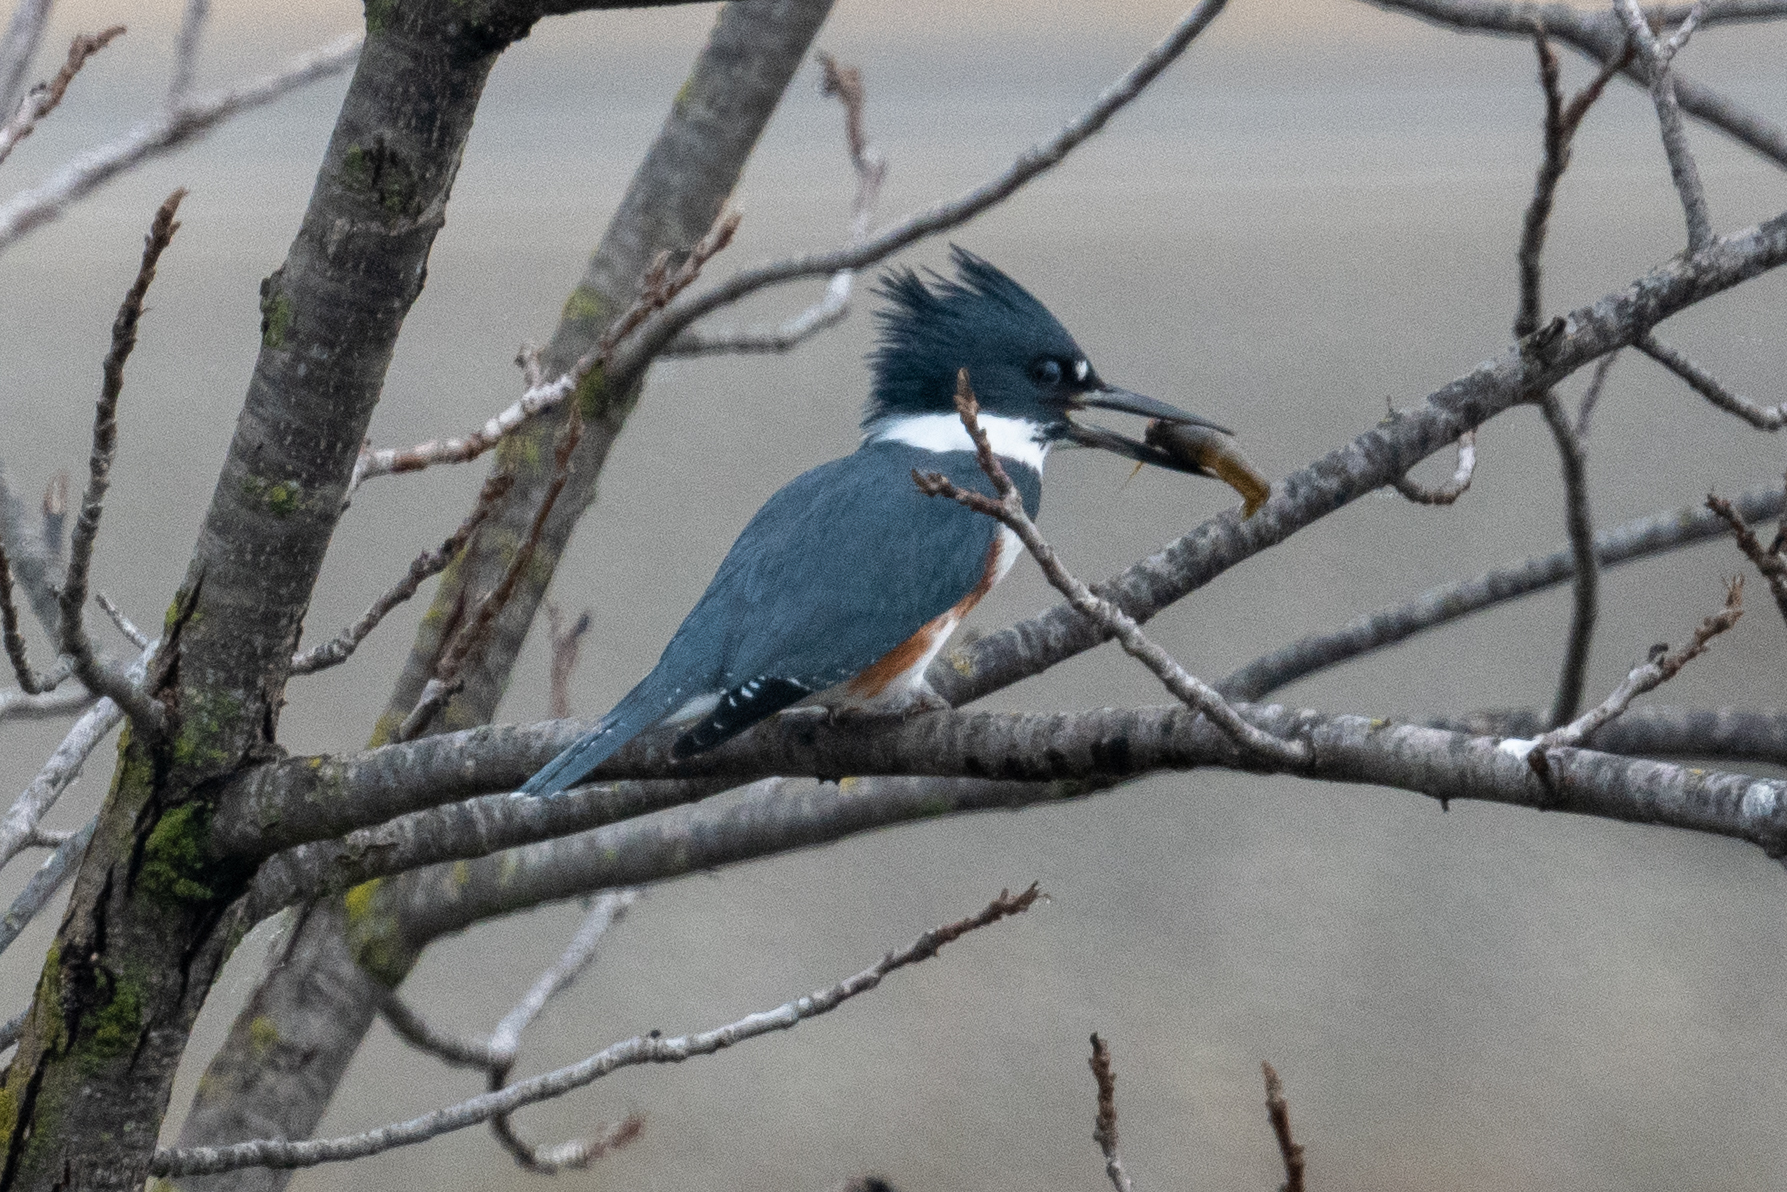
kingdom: Animalia
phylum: Chordata
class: Aves
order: Coraciiformes
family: Alcedinidae
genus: Megaceryle
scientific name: Megaceryle alcyon
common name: Belted kingfisher
